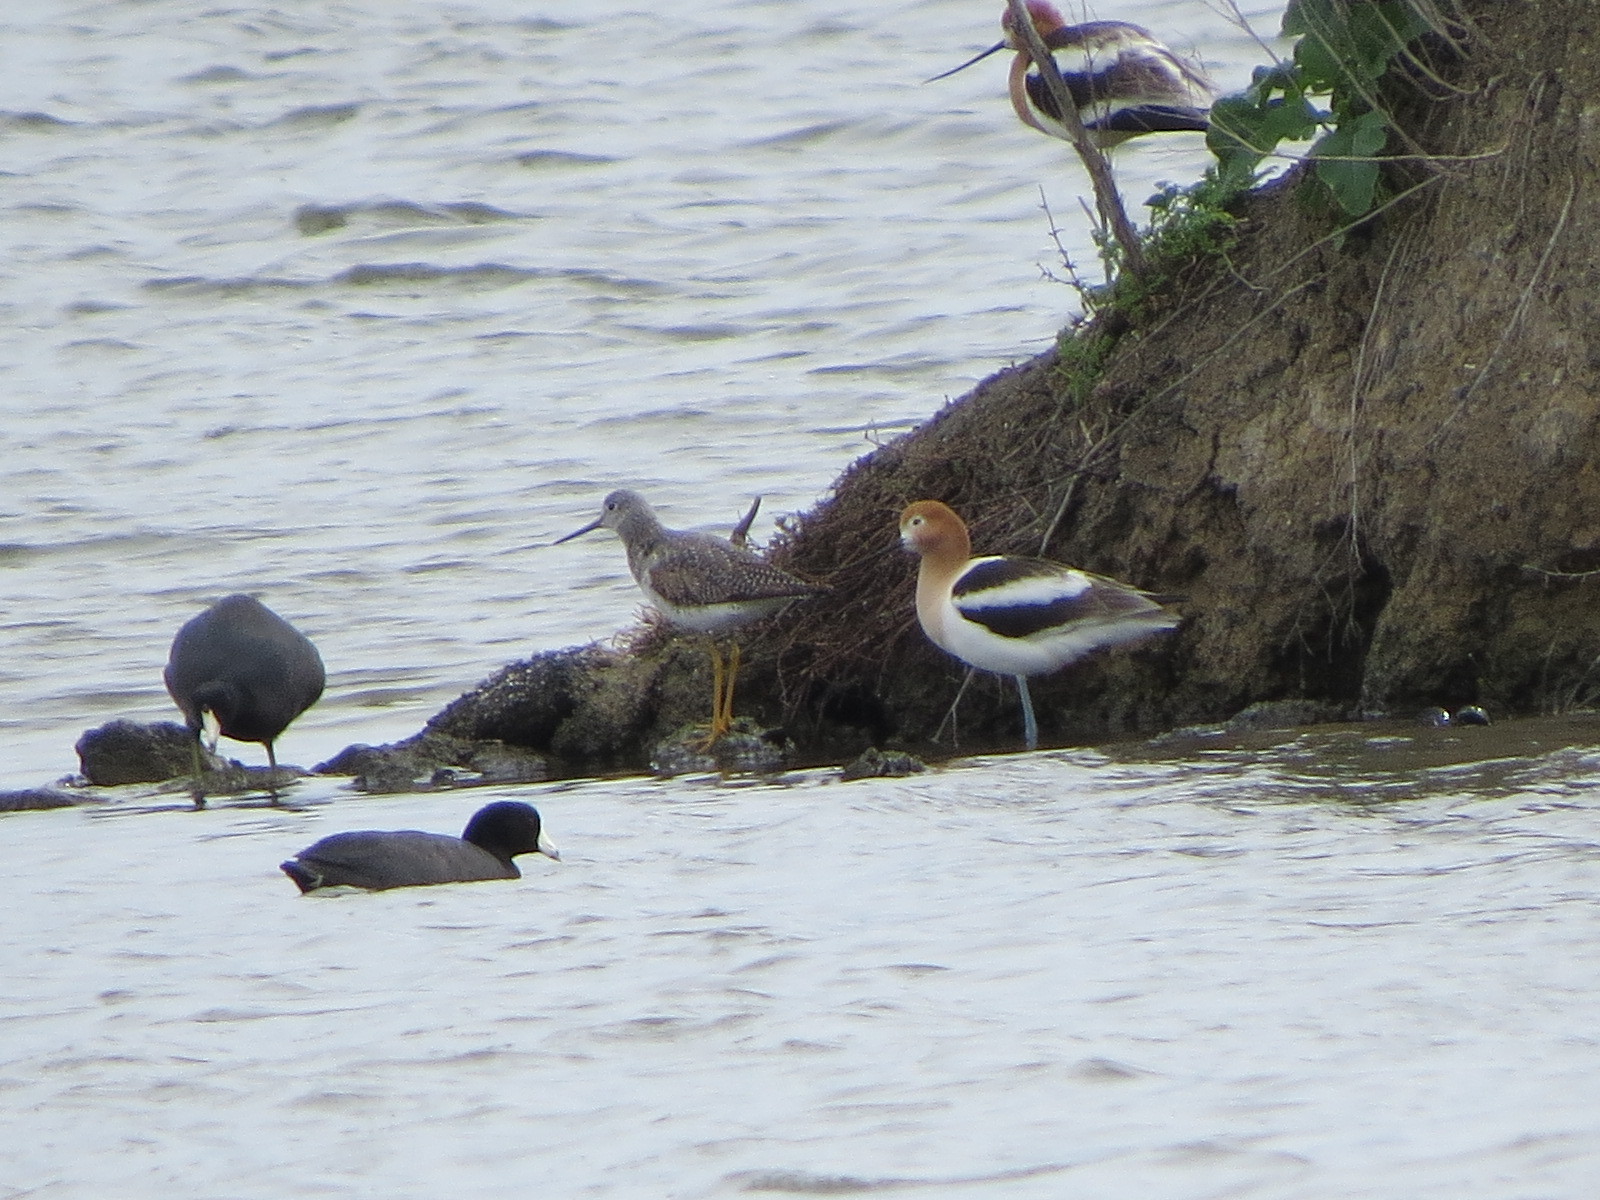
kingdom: Animalia
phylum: Chordata
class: Aves
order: Charadriiformes
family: Scolopacidae
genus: Tringa
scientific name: Tringa melanoleuca
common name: Greater yellowlegs
